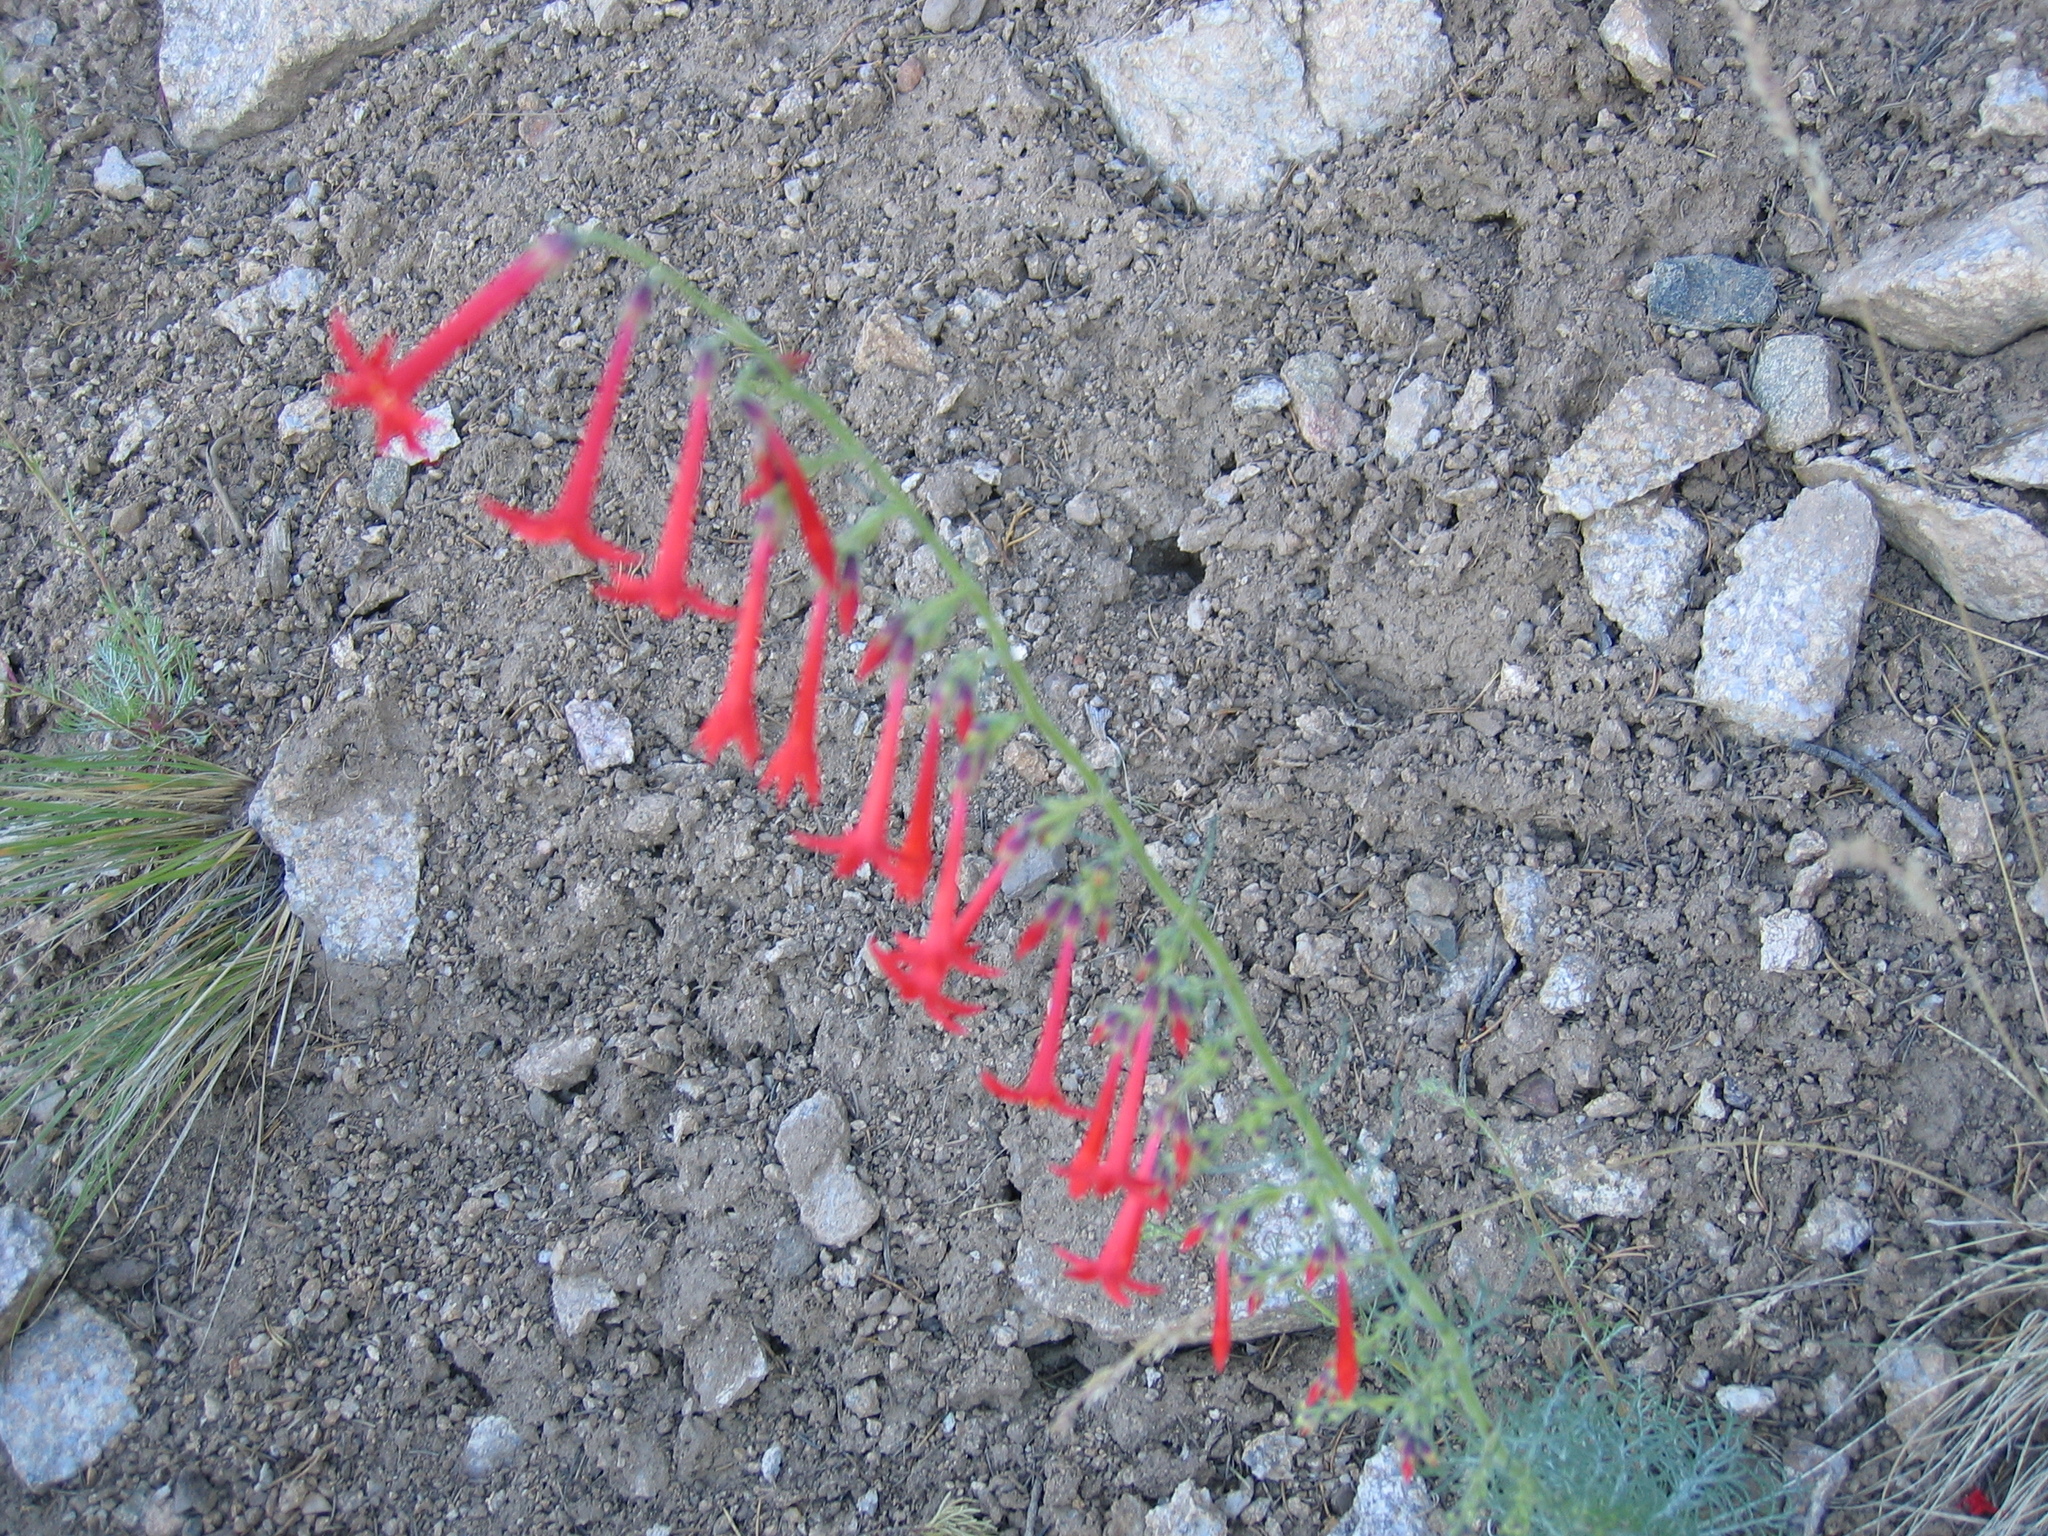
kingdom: Plantae
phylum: Tracheophyta
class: Magnoliopsida
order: Ericales
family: Polemoniaceae
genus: Ipomopsis
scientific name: Ipomopsis aggregata
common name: Scarlet gilia
